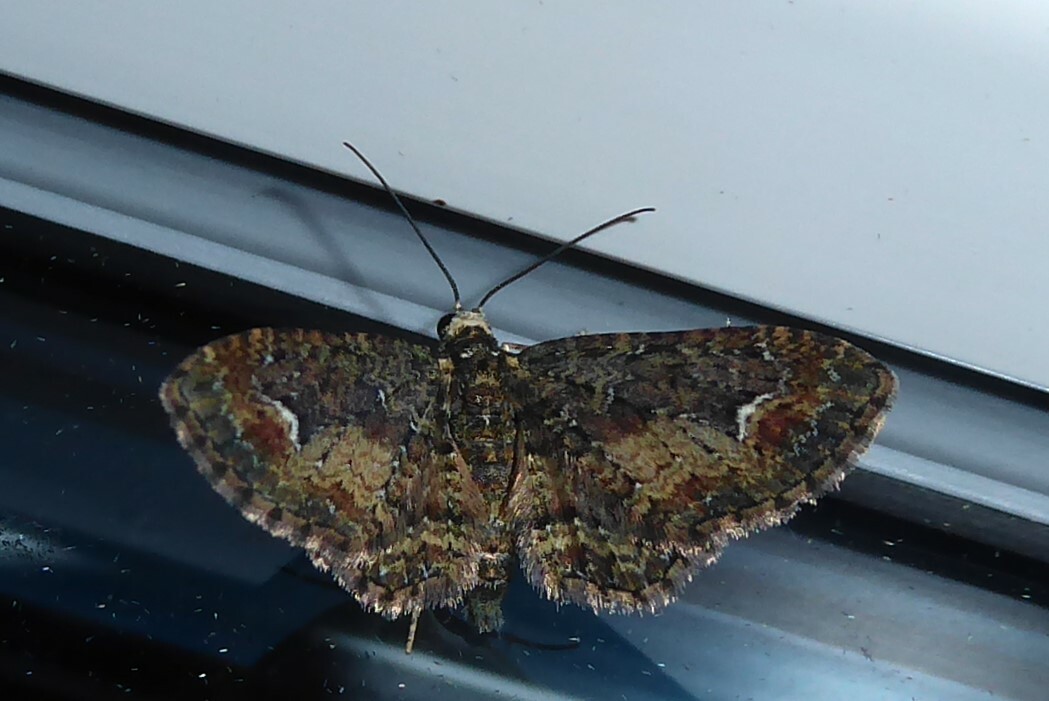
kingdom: Animalia
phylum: Arthropoda
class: Insecta
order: Lepidoptera
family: Geometridae
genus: Pasiphilodes
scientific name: Pasiphilodes testulata
